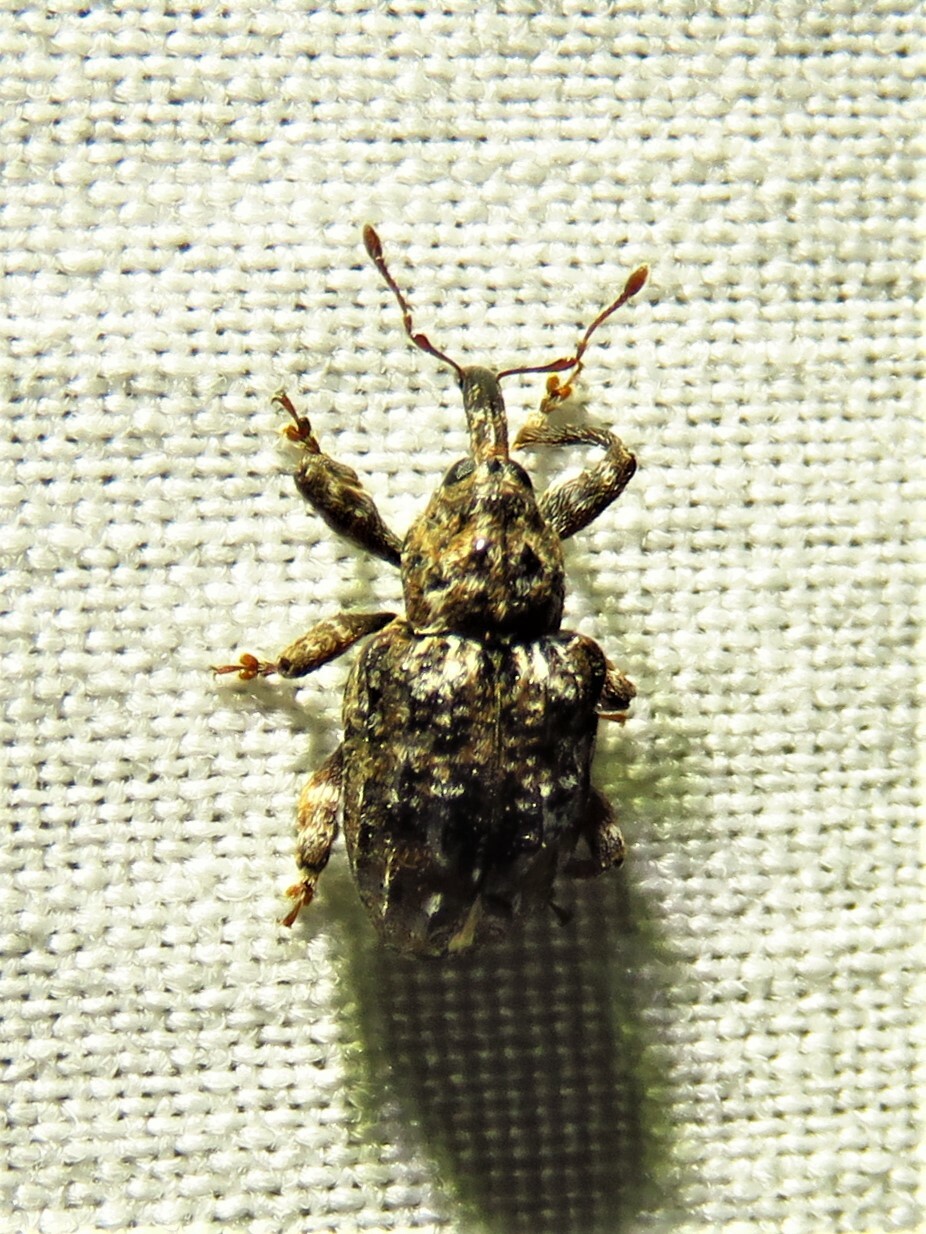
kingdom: Animalia
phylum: Arthropoda
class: Insecta
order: Coleoptera
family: Curculionidae
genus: Conotrachelus
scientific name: Conotrachelus nenuphar
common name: Plum curculio
